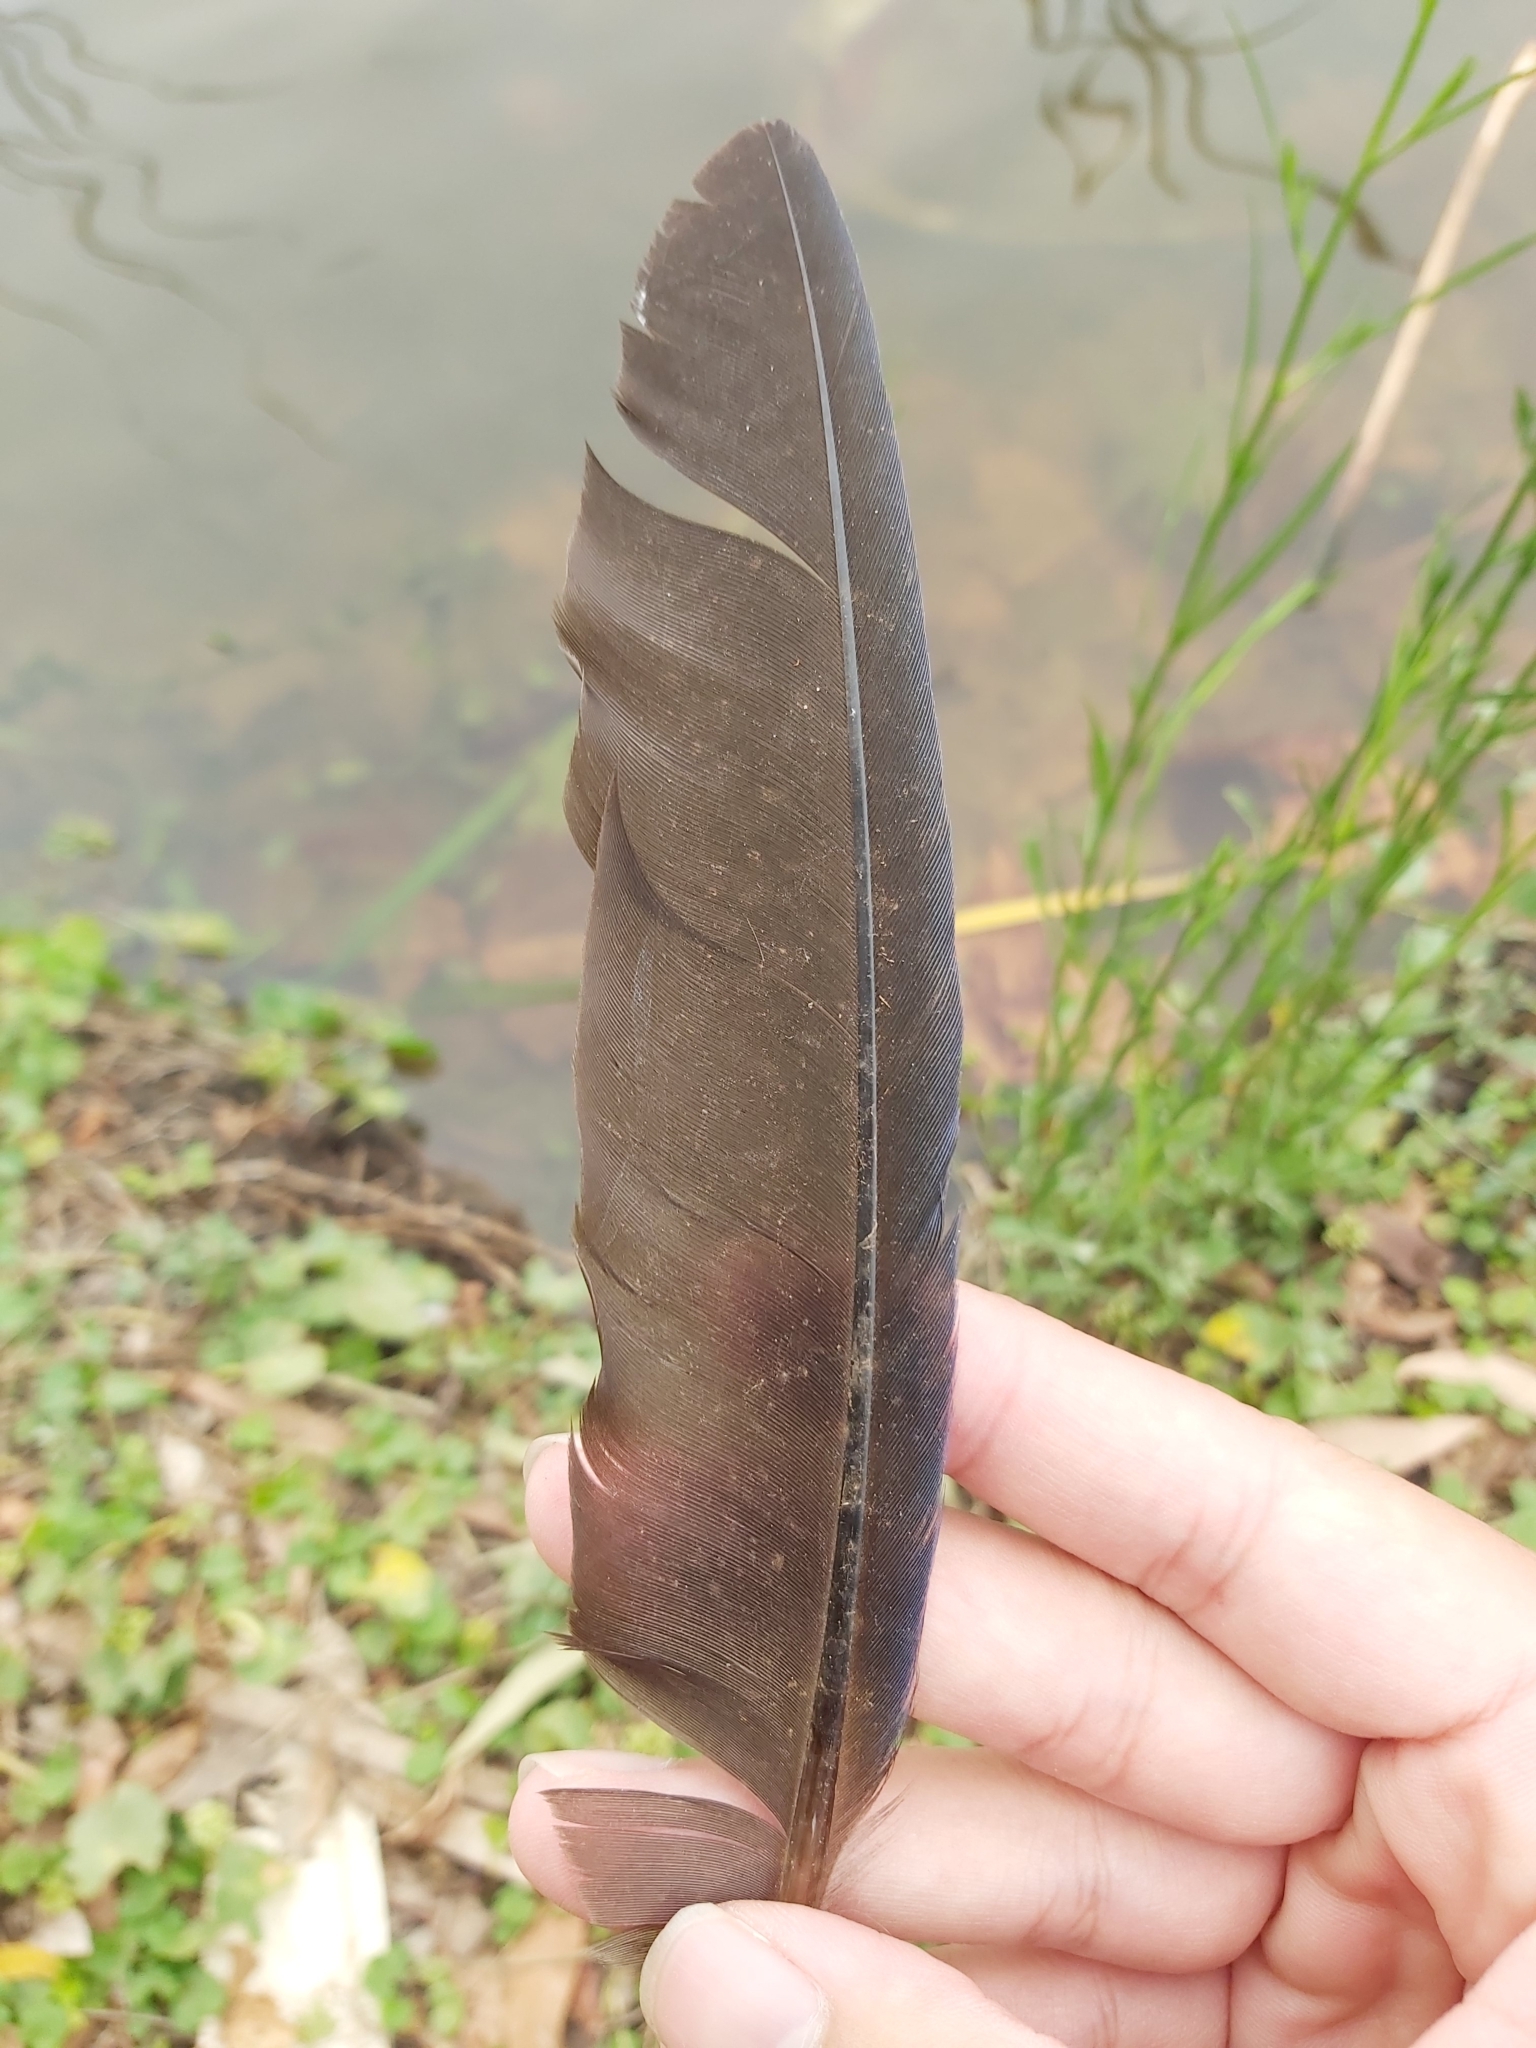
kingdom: Animalia
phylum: Chordata
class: Aves
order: Gruiformes
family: Rallidae
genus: Porphyrio
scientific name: Porphyrio melanotus
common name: Australasian swamphen
